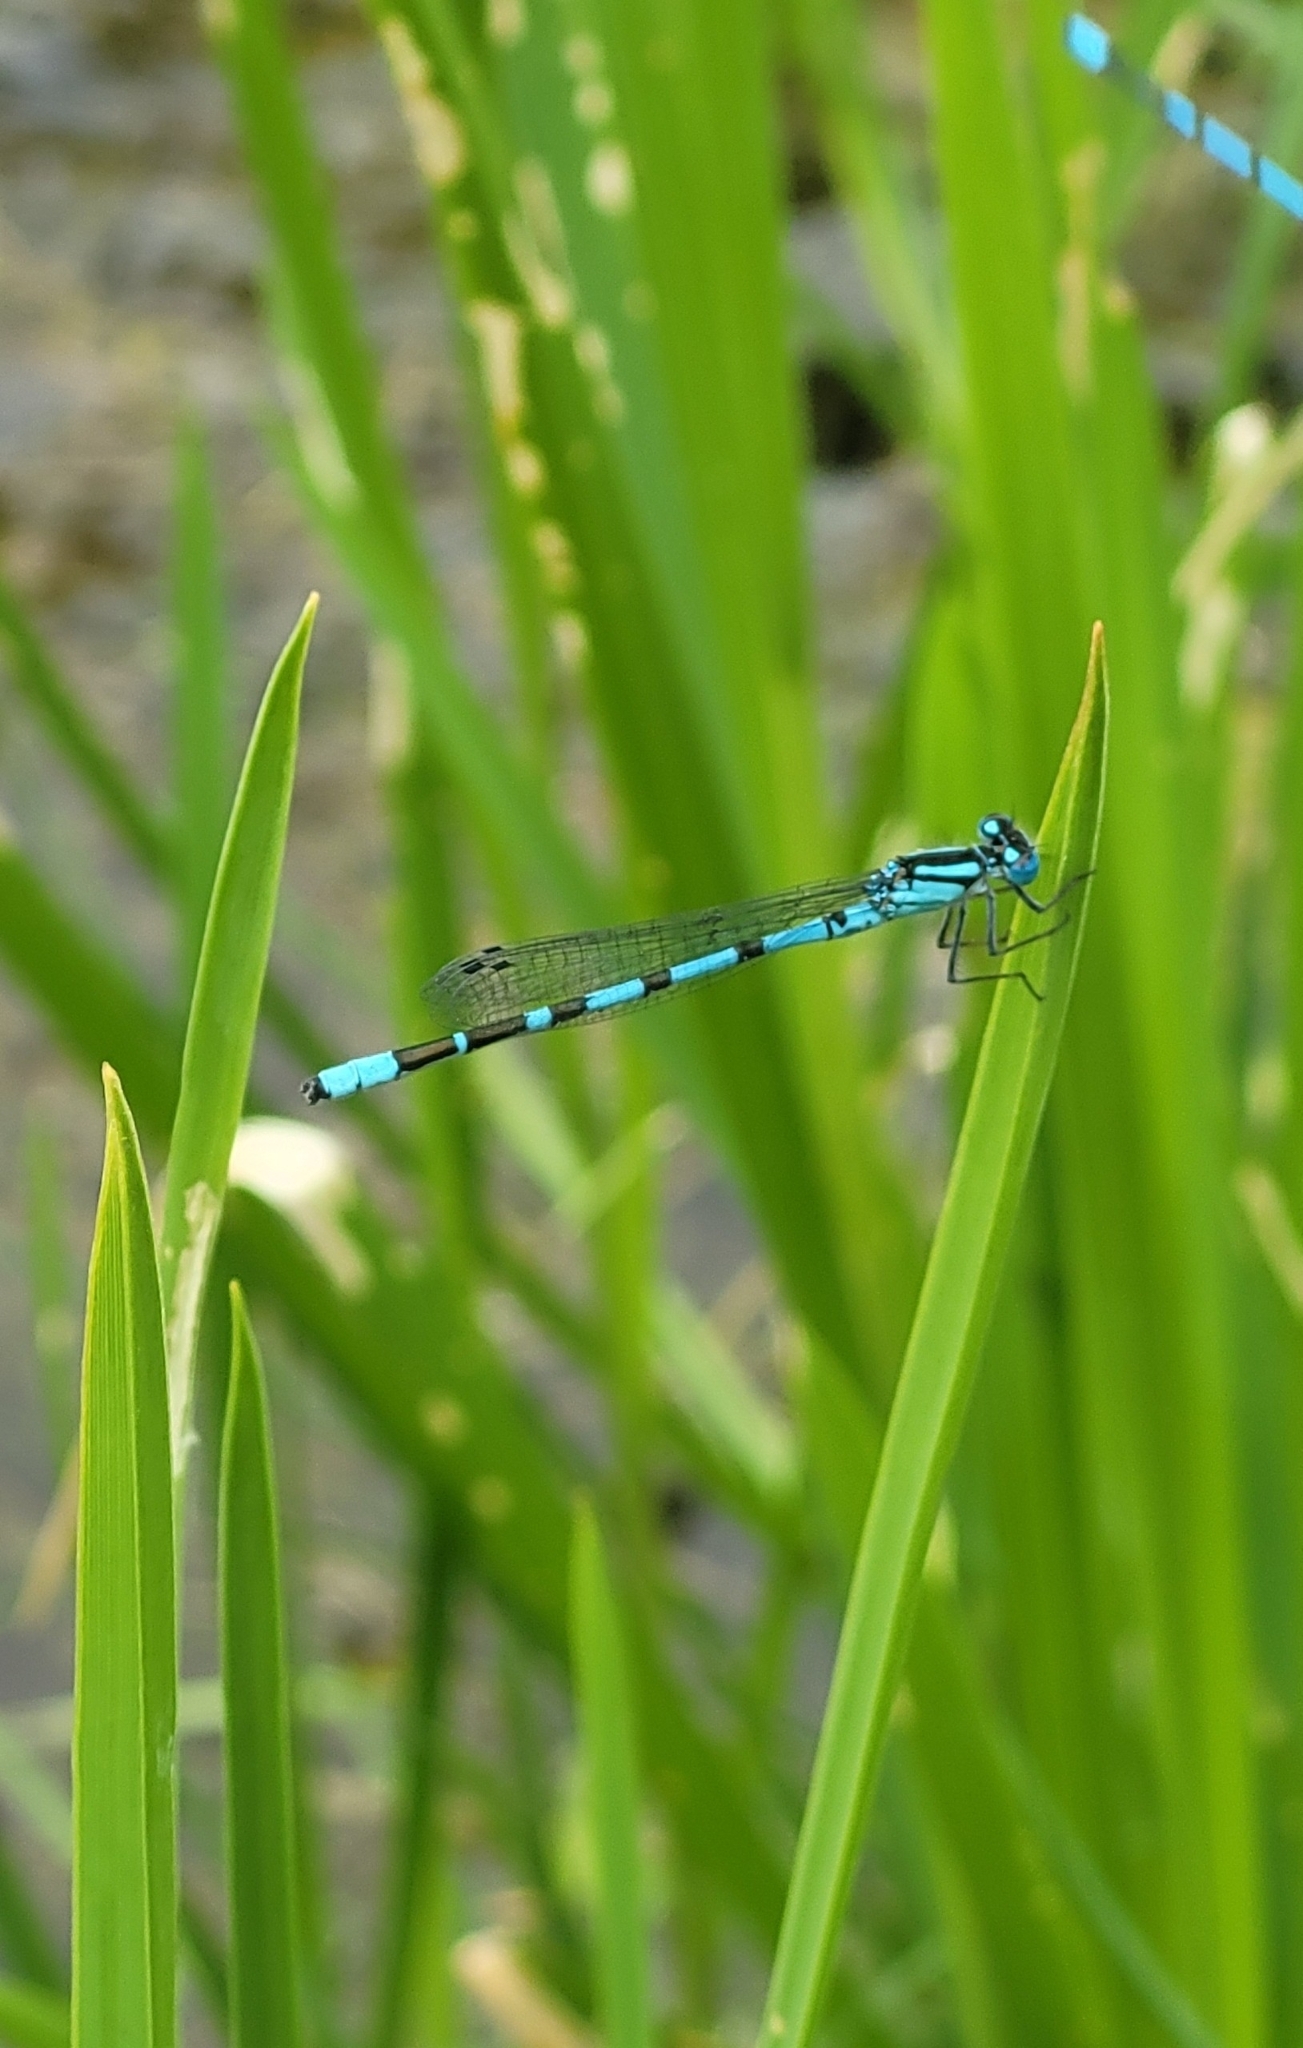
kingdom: Animalia
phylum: Arthropoda
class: Insecta
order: Odonata
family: Coenagrionidae
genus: Enallagma
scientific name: Enallagma cyathigerum
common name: Common blue damselfly
